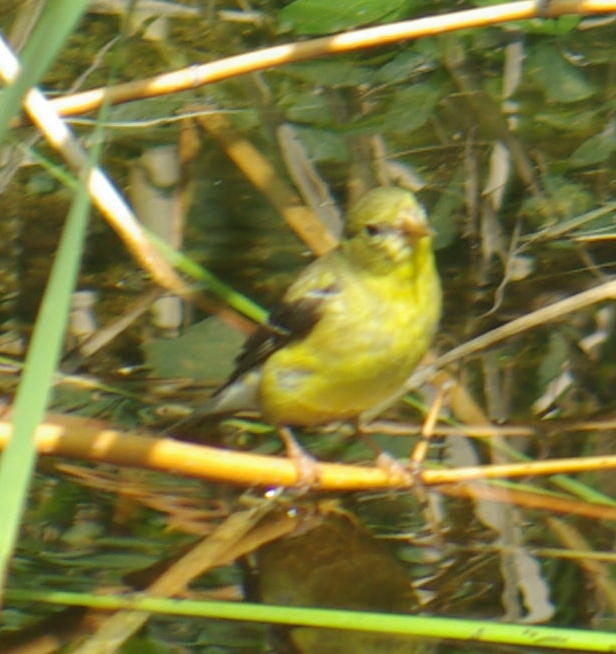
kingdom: Animalia
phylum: Chordata
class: Aves
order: Passeriformes
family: Fringillidae
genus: Spinus
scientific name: Spinus tristis
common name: American goldfinch
